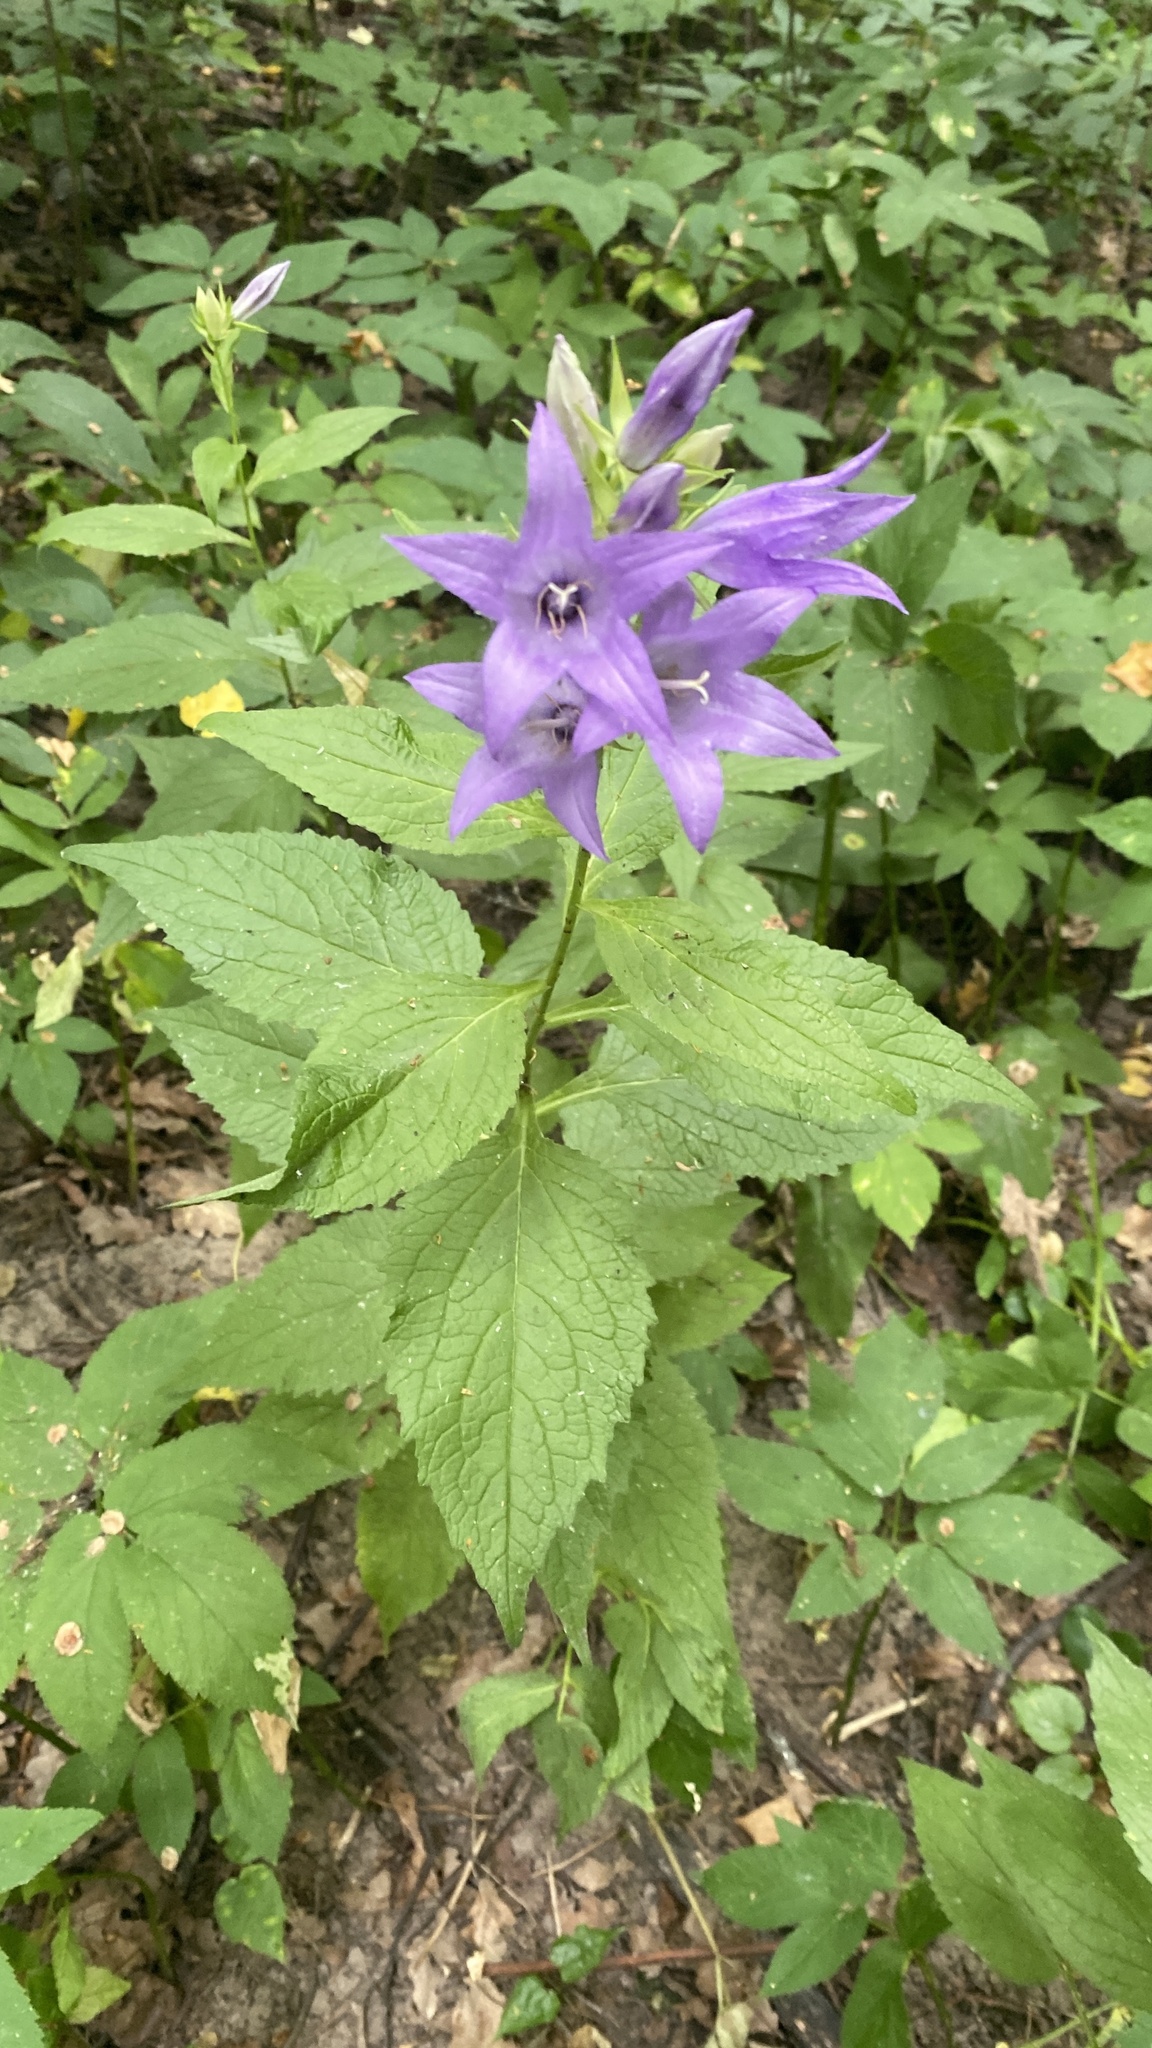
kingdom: Plantae
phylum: Tracheophyta
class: Magnoliopsida
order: Asterales
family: Campanulaceae
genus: Campanula
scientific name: Campanula latifolia
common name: Giant bellflower
